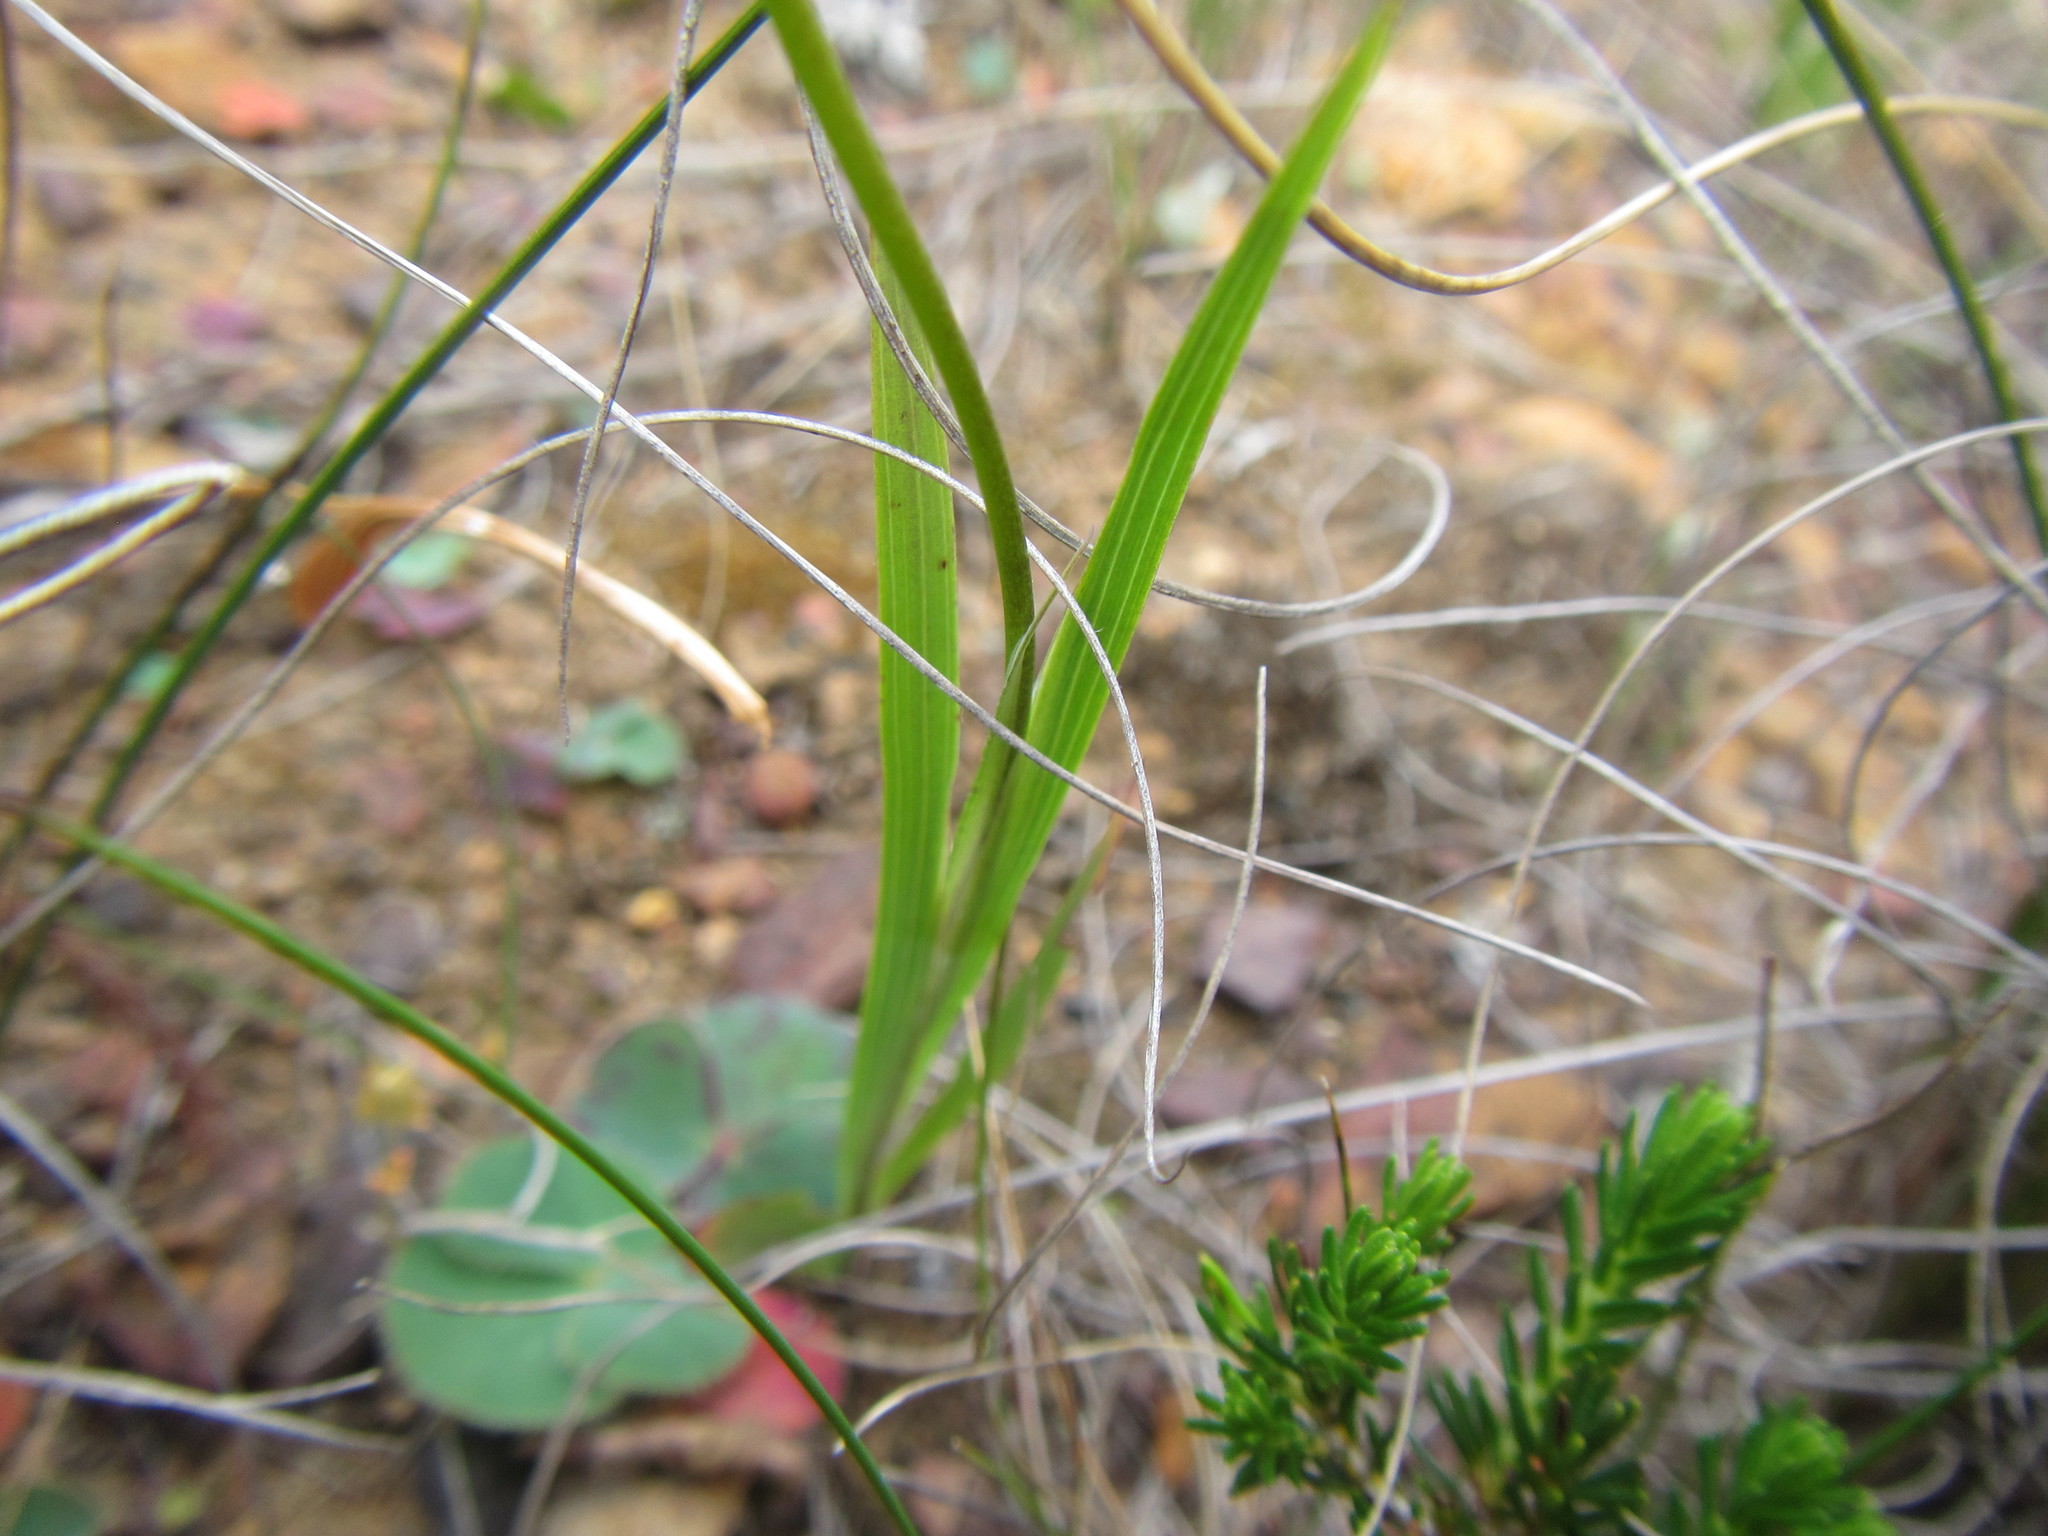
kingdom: Plantae
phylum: Tracheophyta
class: Liliopsida
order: Asparagales
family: Iridaceae
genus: Ixia
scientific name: Ixia scillaris
